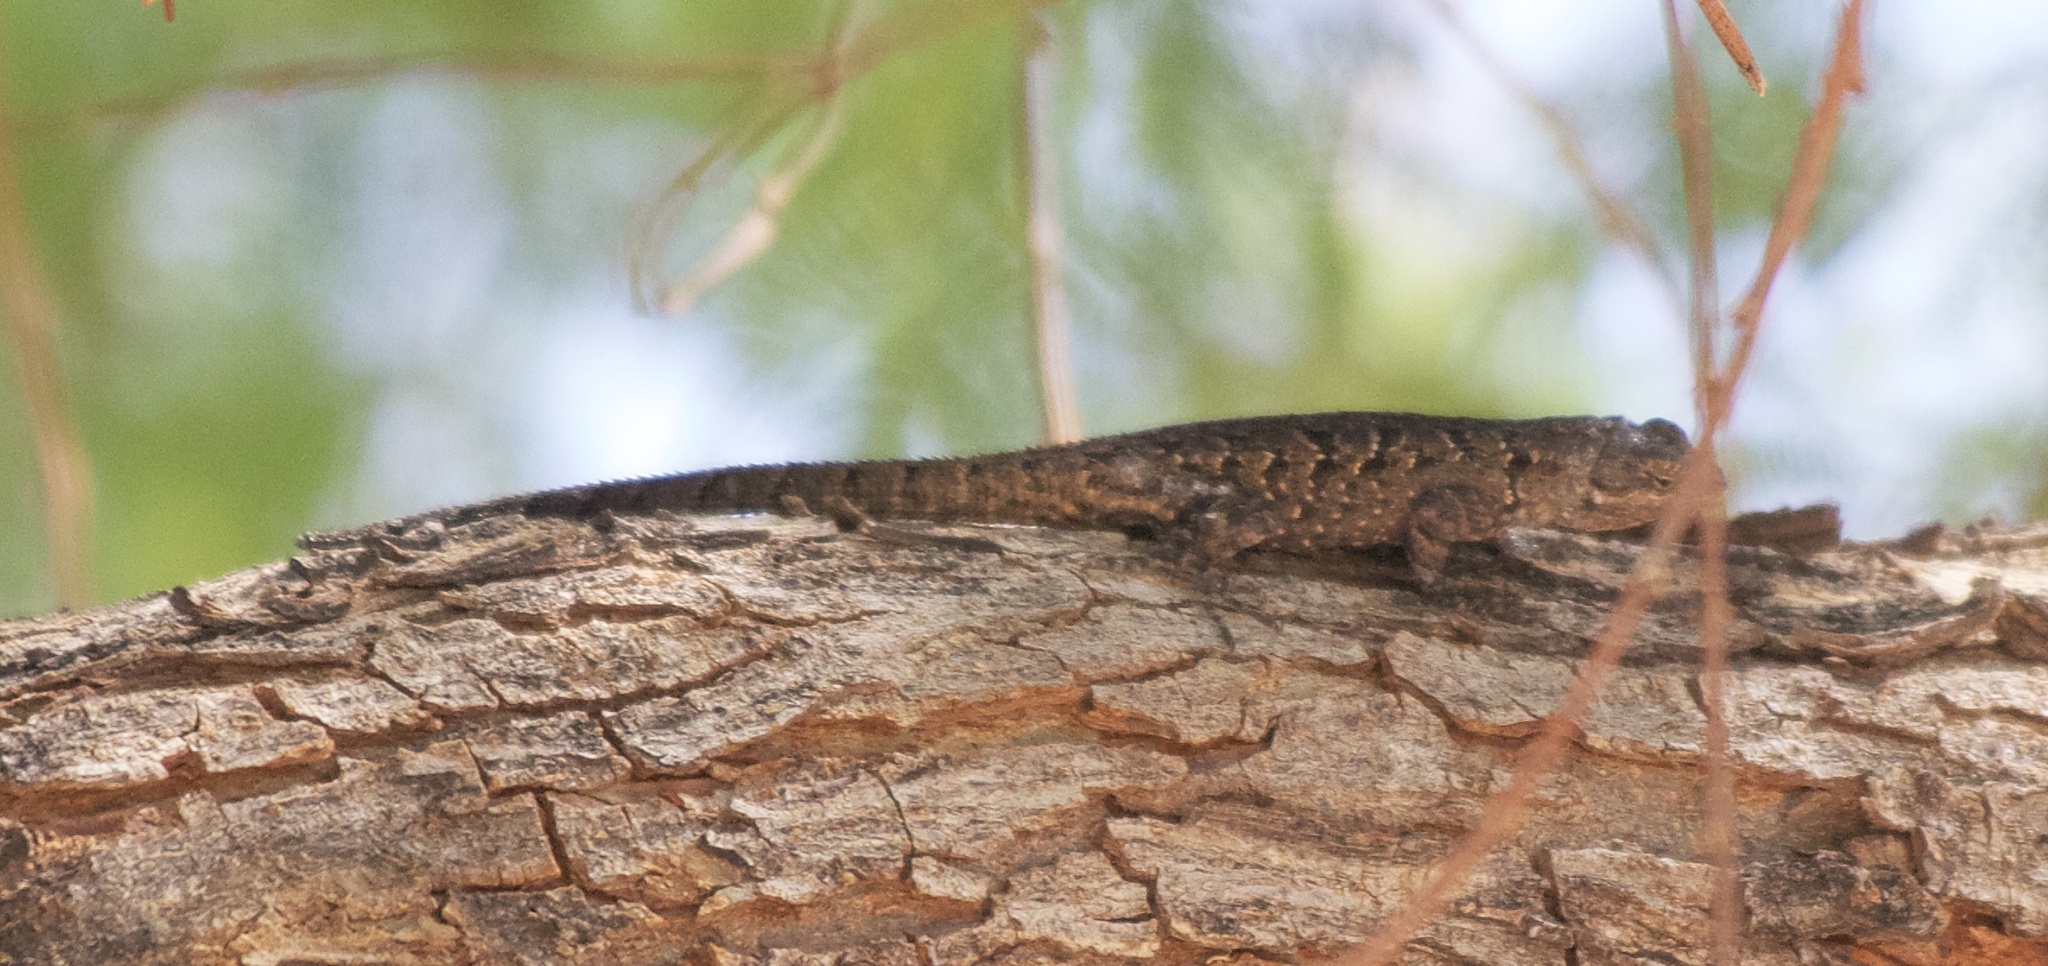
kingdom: Animalia
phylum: Chordata
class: Squamata
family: Phrynosomatidae
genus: Urosaurus
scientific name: Urosaurus ornatus
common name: Ornate tree lizard
